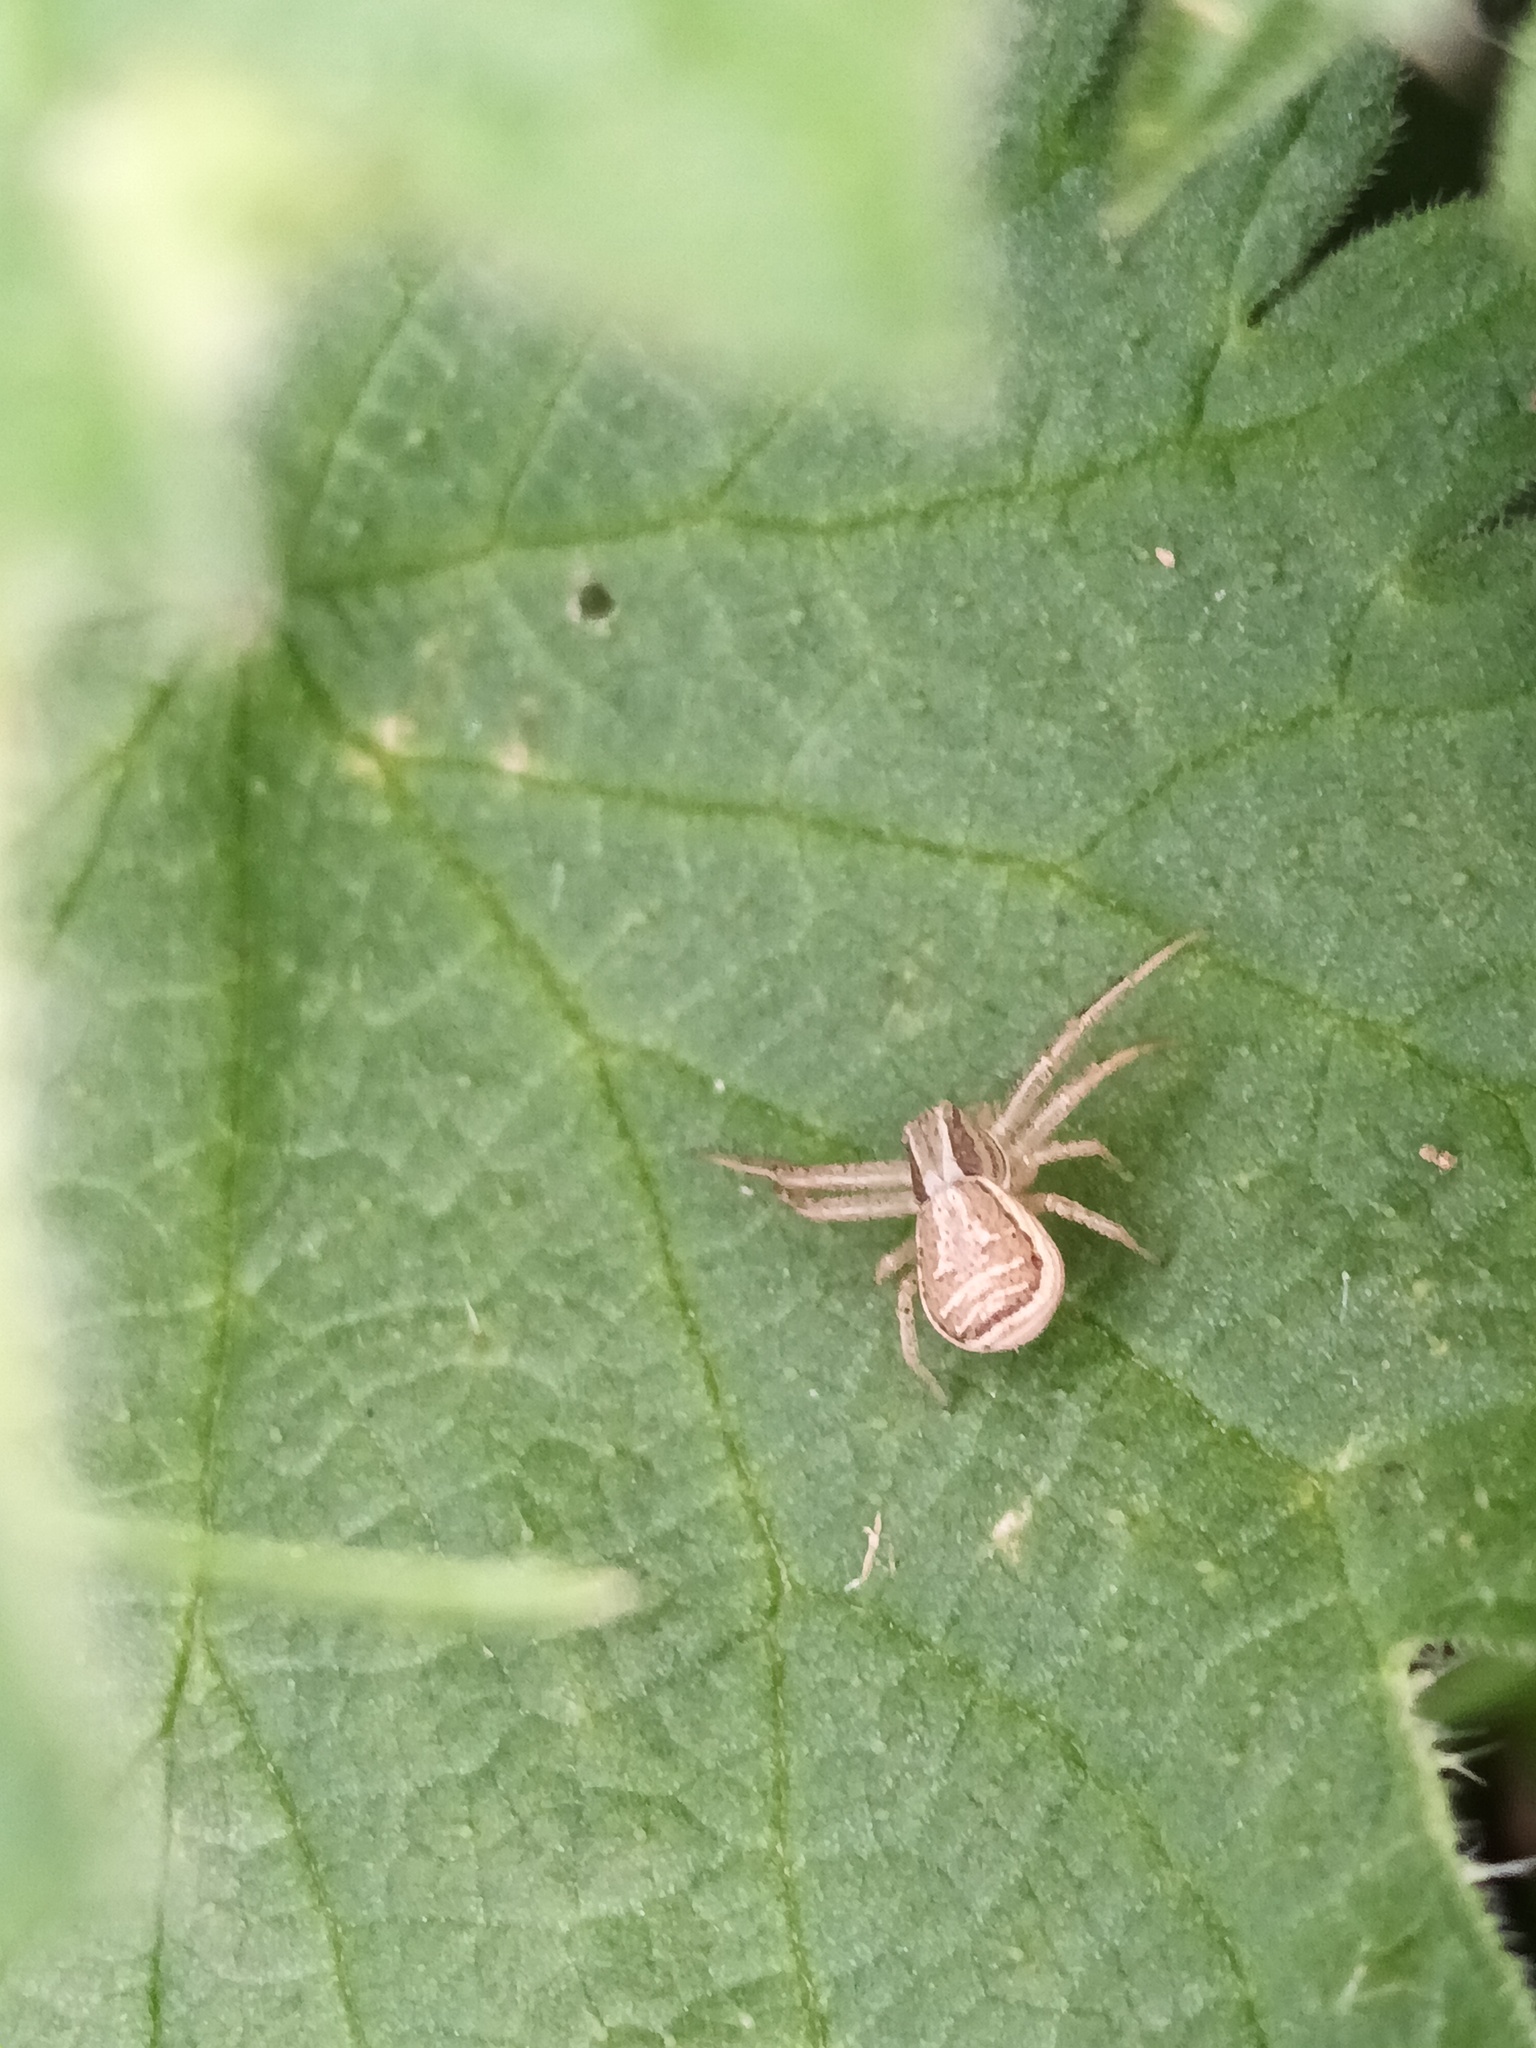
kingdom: Animalia
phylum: Arthropoda
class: Arachnida
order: Araneae
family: Thomisidae
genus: Xysticus
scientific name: Xysticus ulmi
